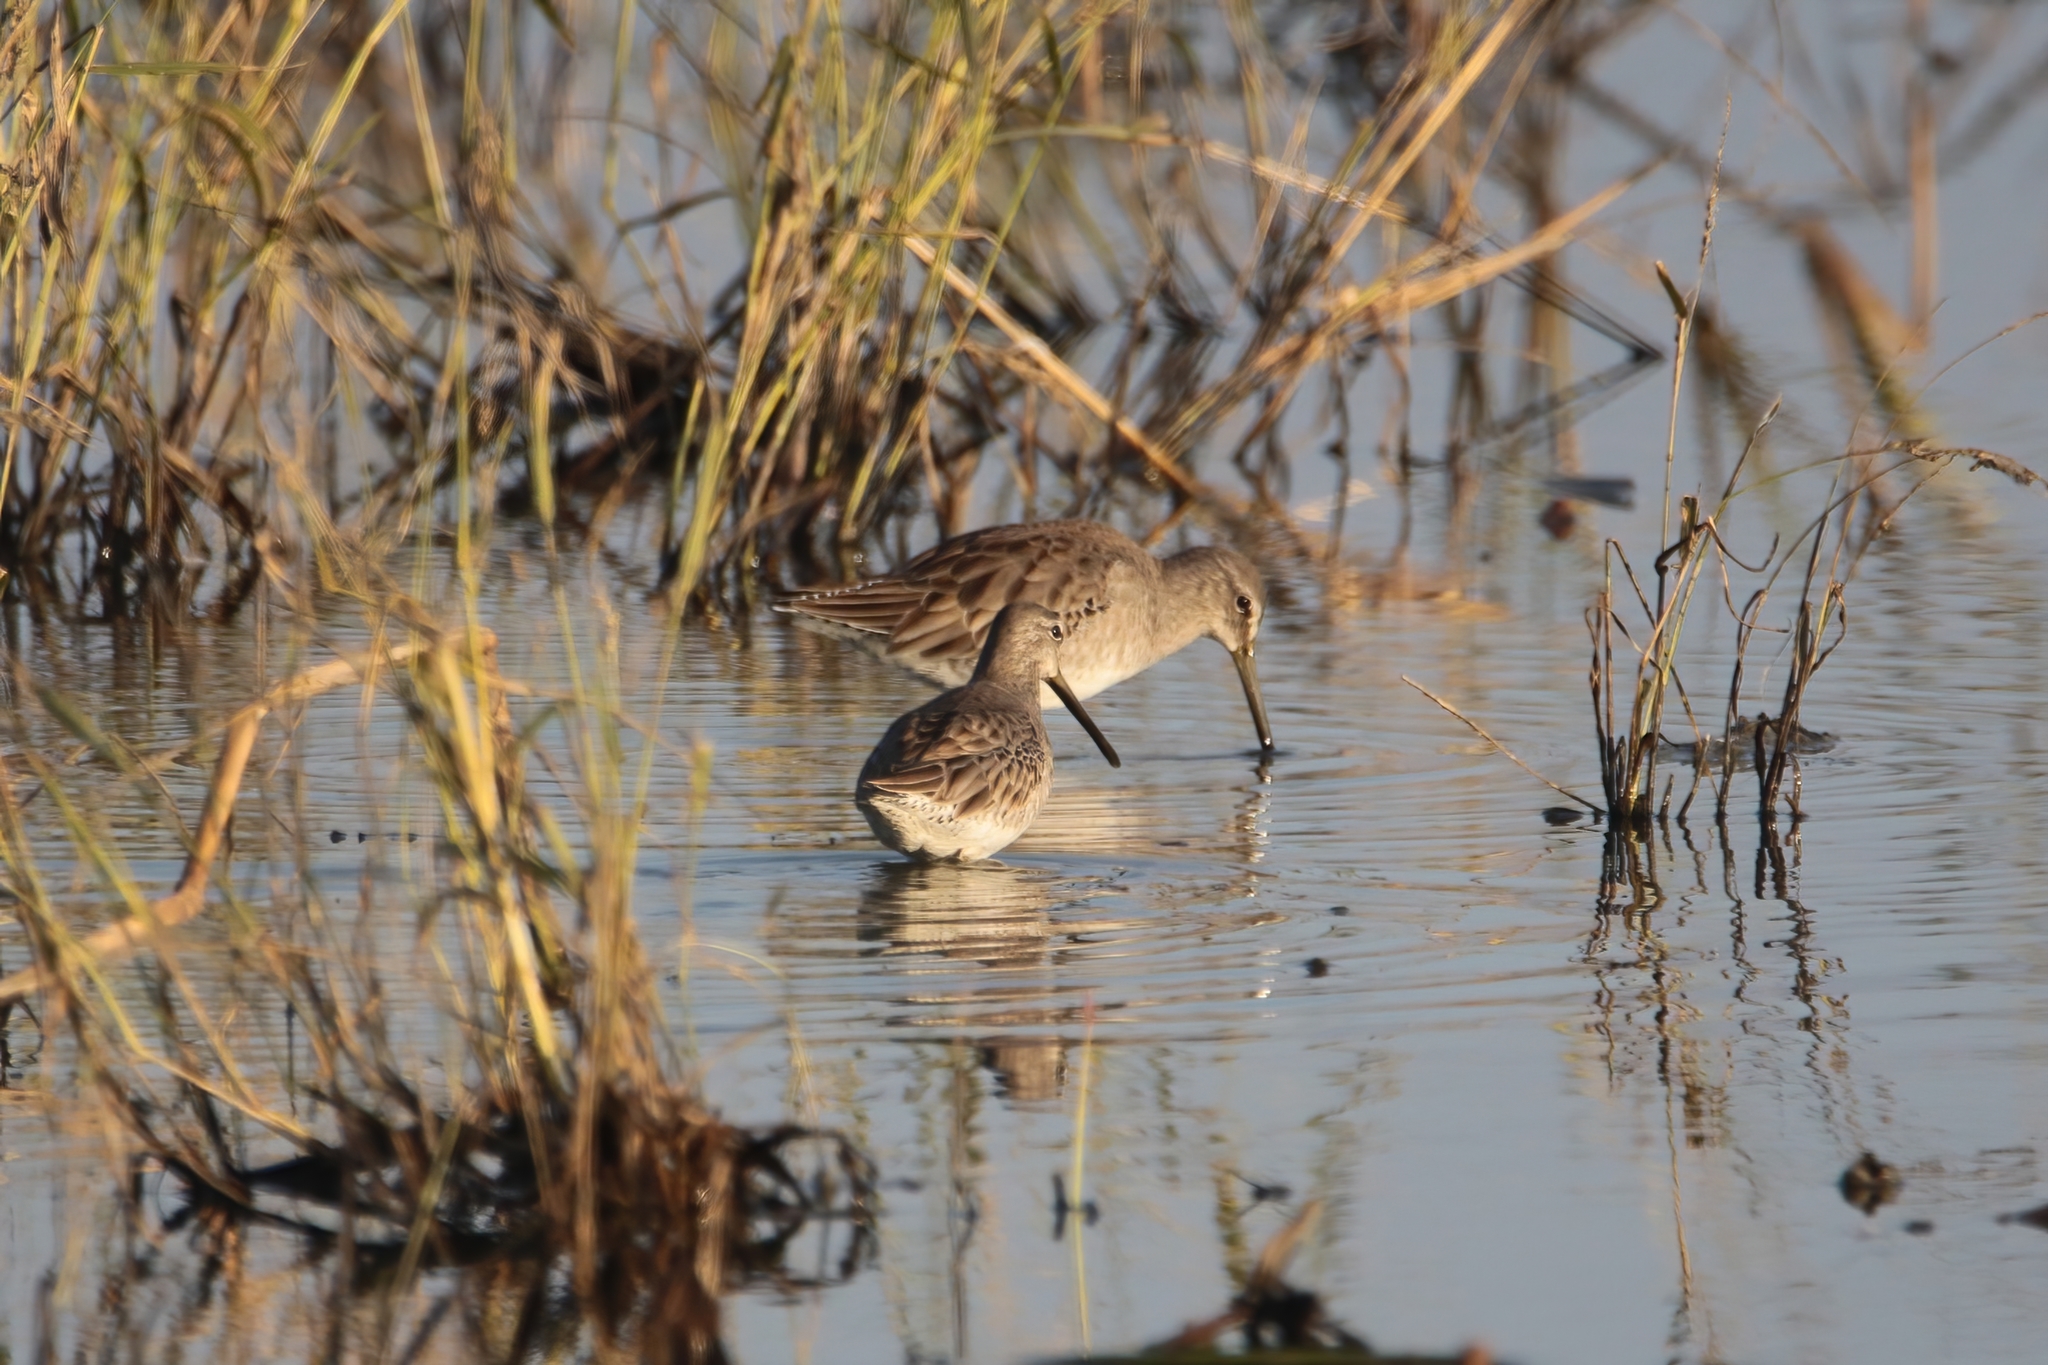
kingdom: Animalia
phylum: Chordata
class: Aves
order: Charadriiformes
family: Scolopacidae
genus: Limnodromus
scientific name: Limnodromus scolopaceus
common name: Long-billed dowitcher
